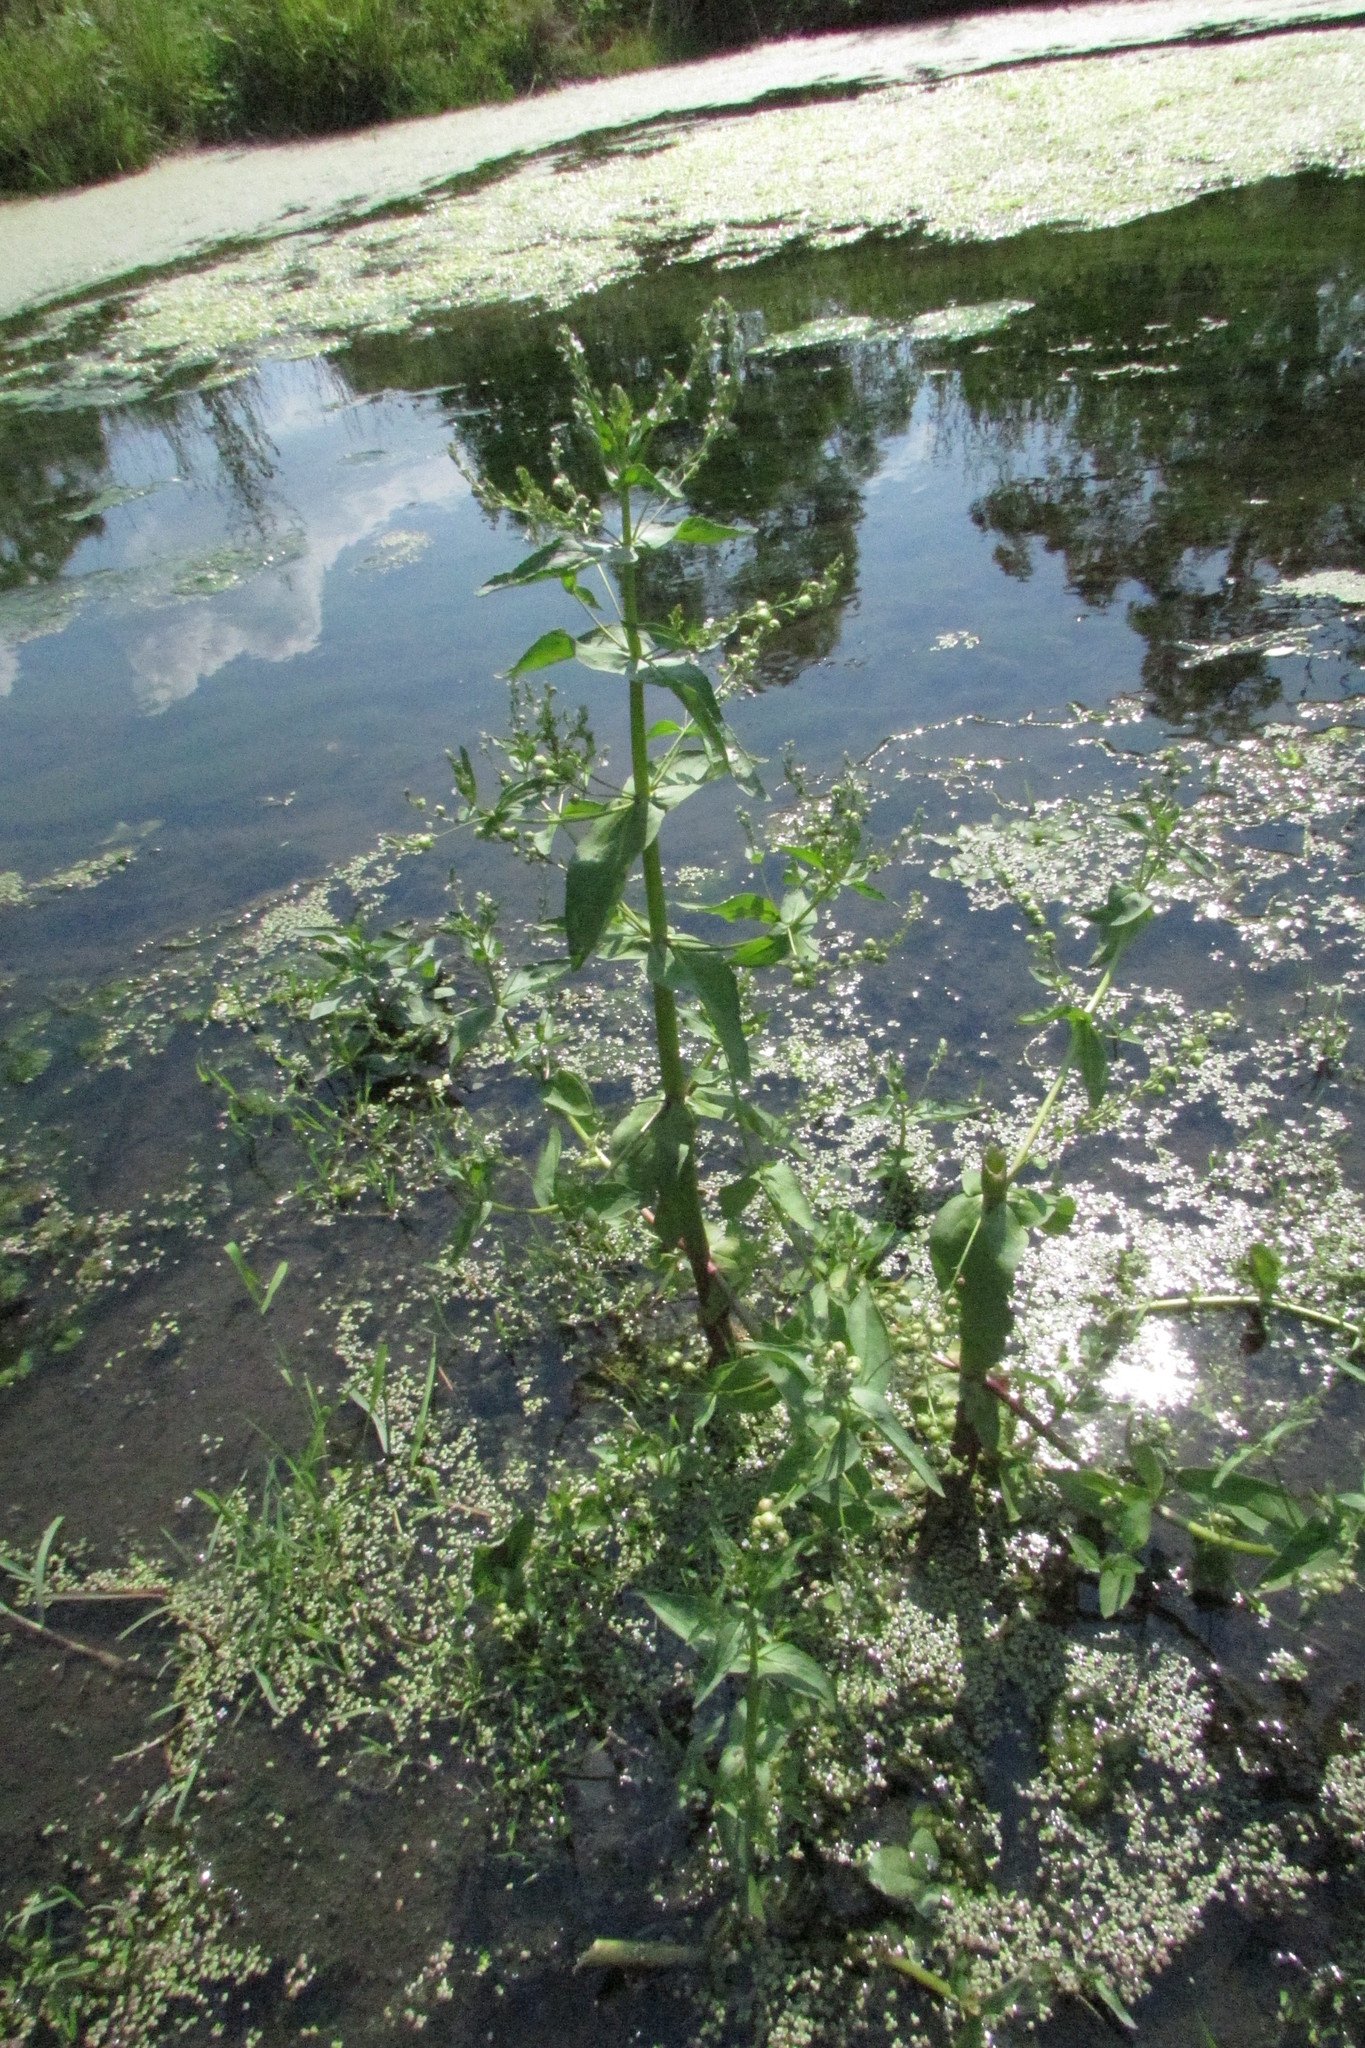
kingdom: Plantae
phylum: Tracheophyta
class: Magnoliopsida
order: Lamiales
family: Plantaginaceae
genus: Veronica
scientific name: Veronica anagallis-aquatica
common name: Water speedwell
